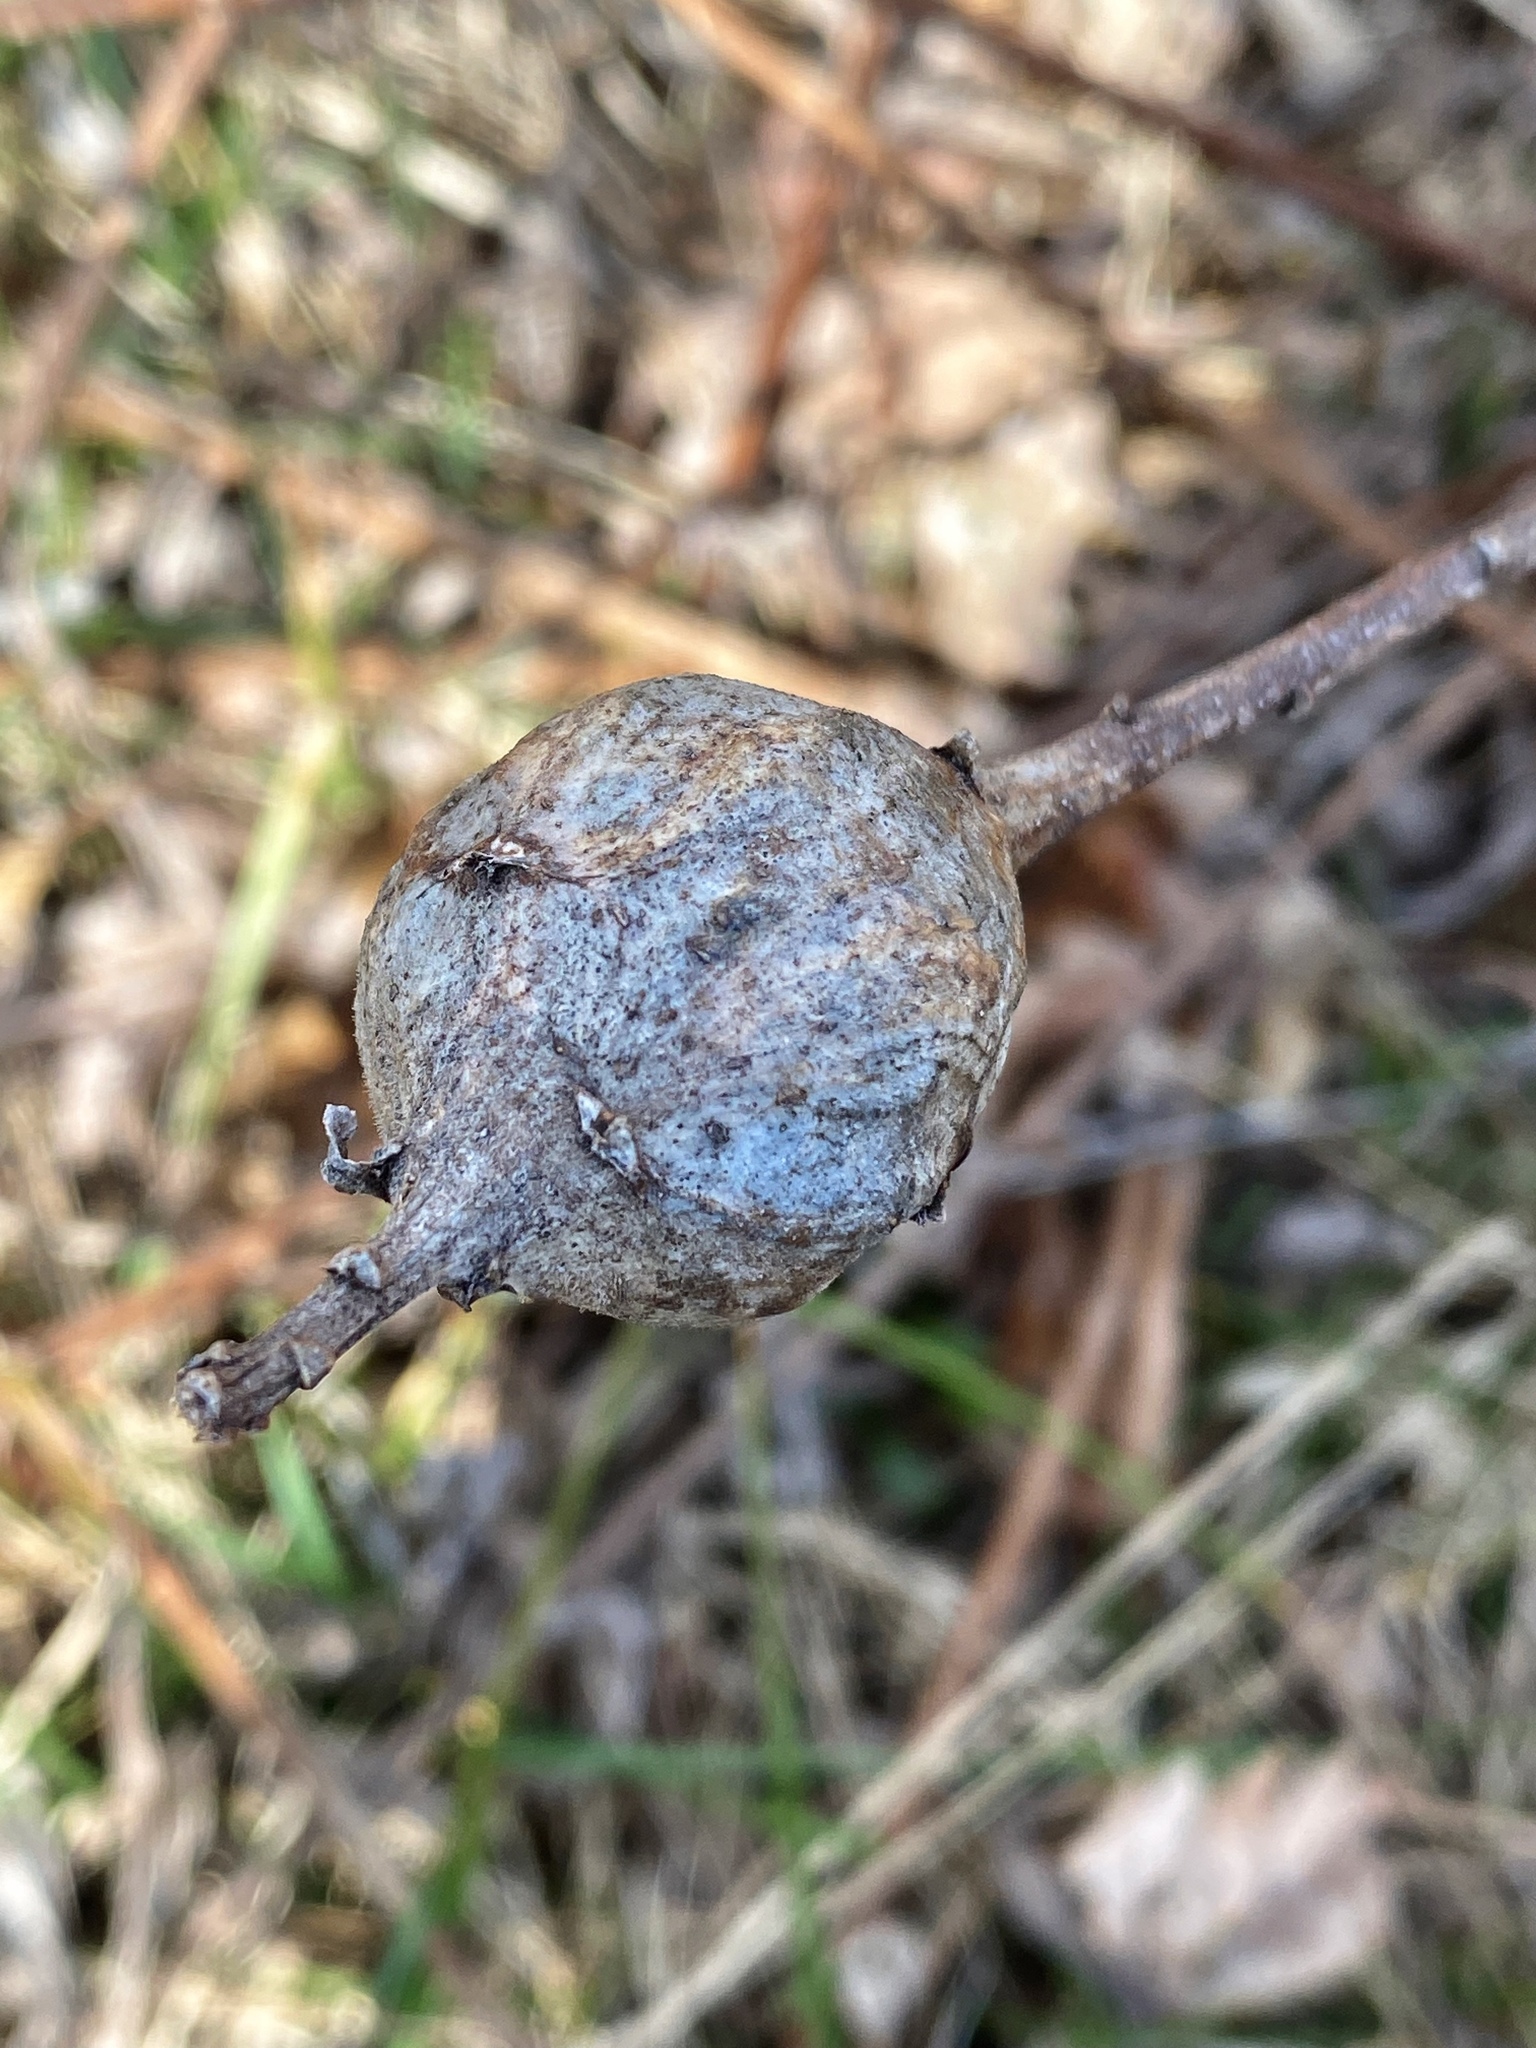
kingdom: Animalia
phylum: Arthropoda
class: Insecta
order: Diptera
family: Tephritidae
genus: Eurosta
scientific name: Eurosta solidaginis
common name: Goldenrod gall fly
